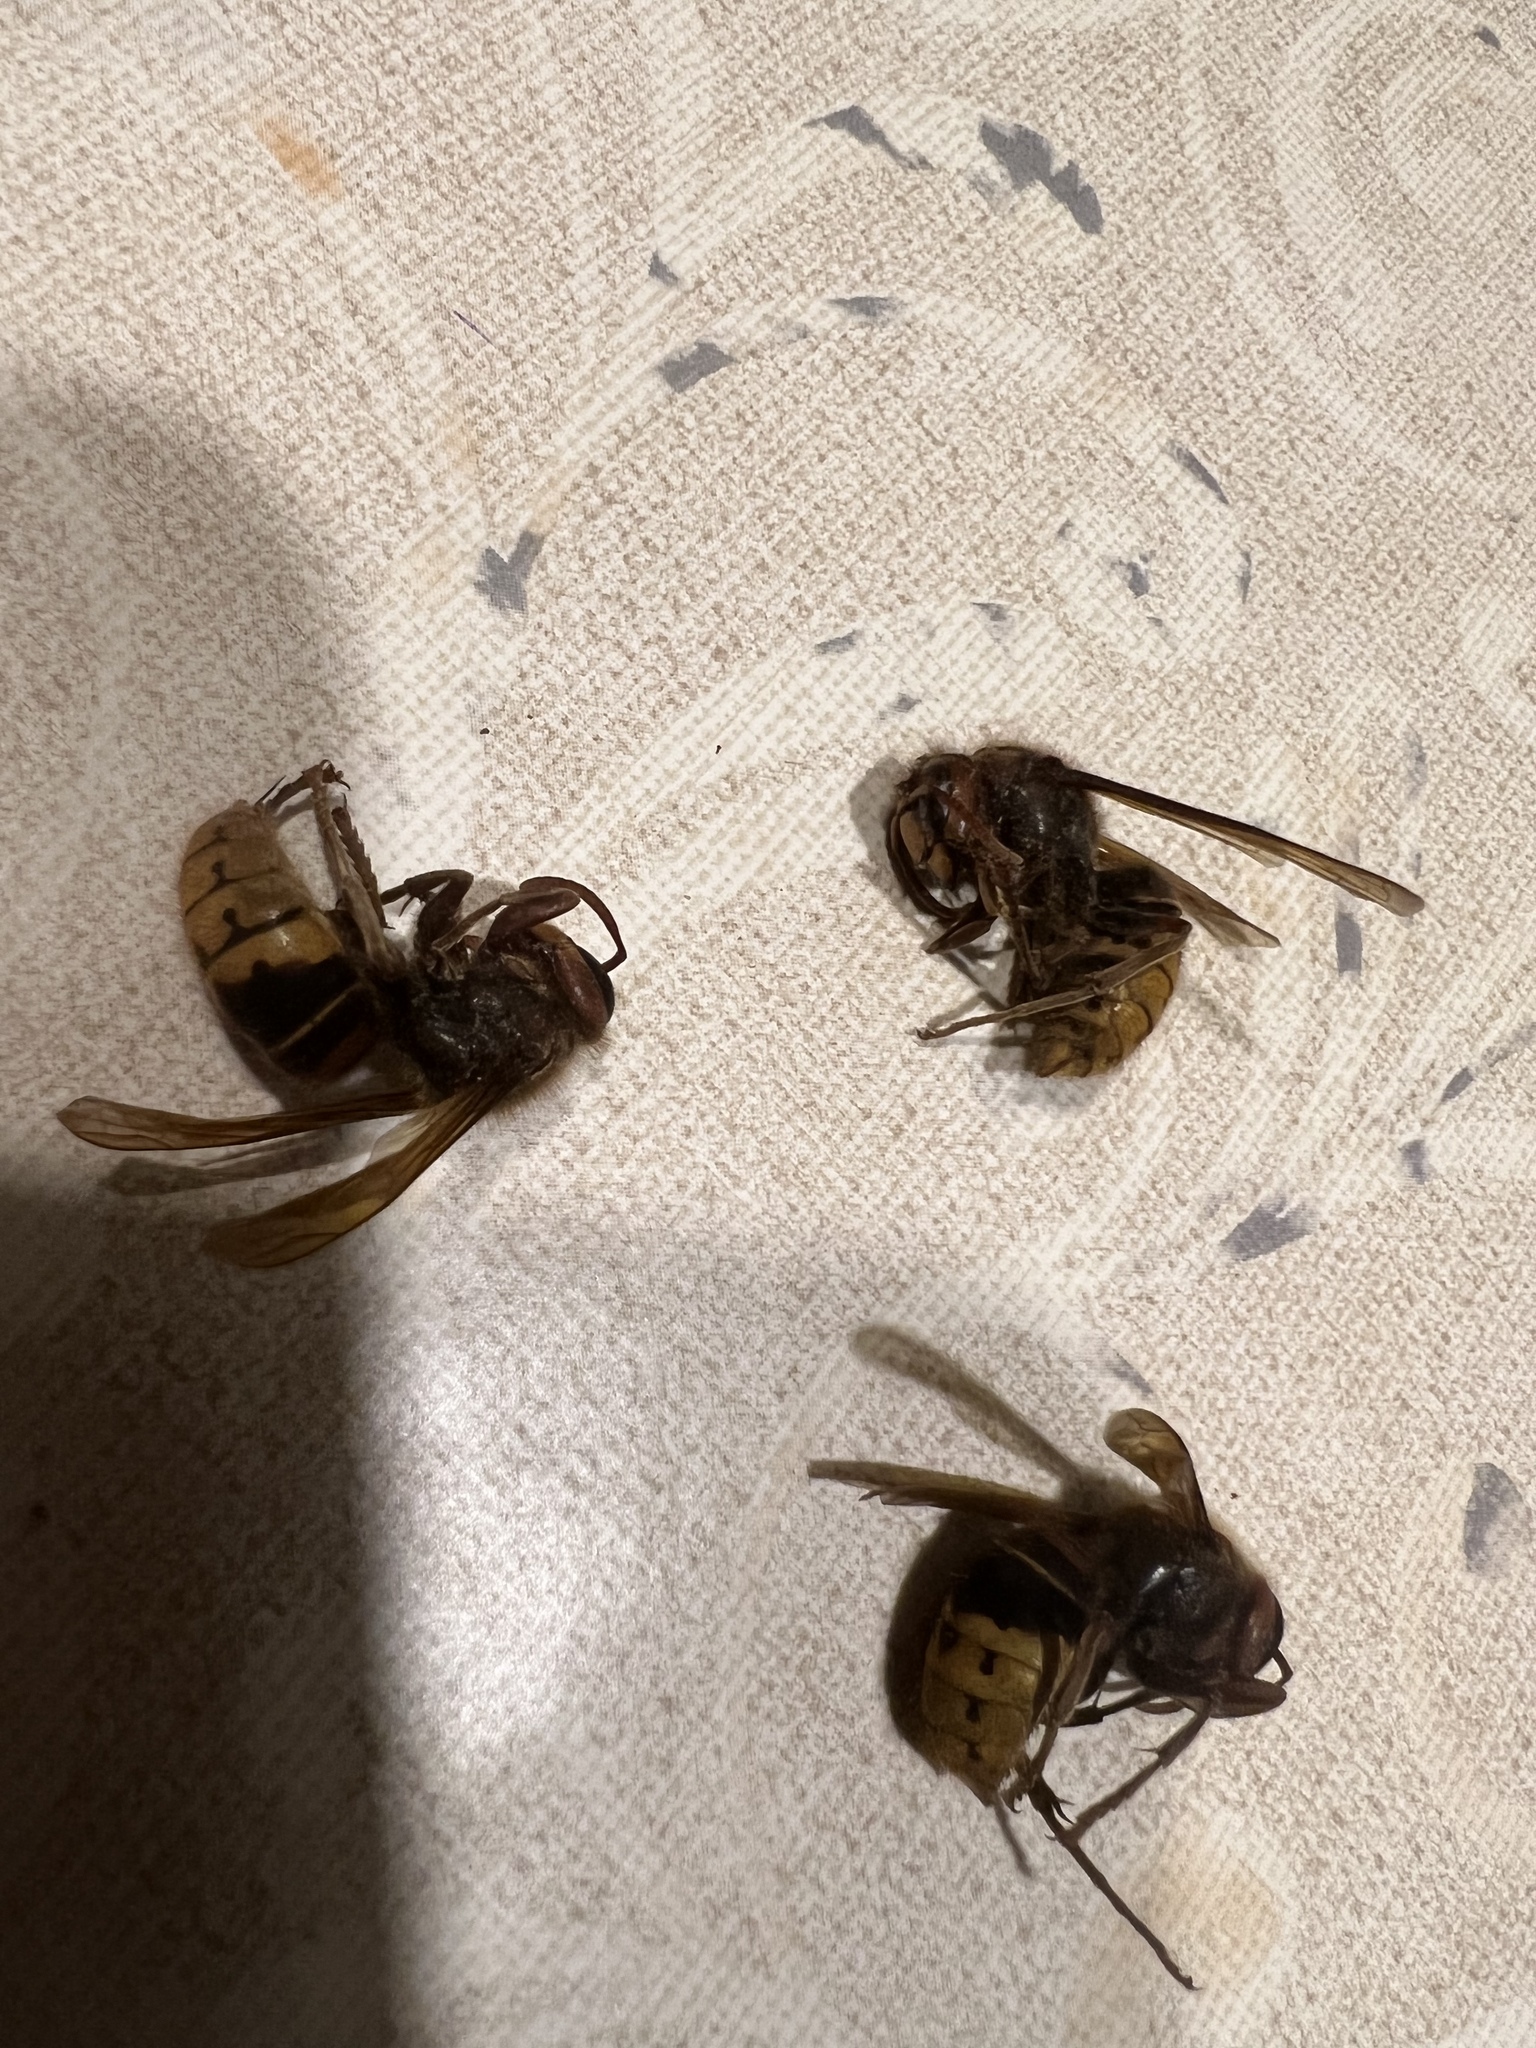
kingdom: Animalia
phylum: Arthropoda
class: Insecta
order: Hymenoptera
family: Vespidae
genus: Vespa
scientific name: Vespa crabro
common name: Hornet
